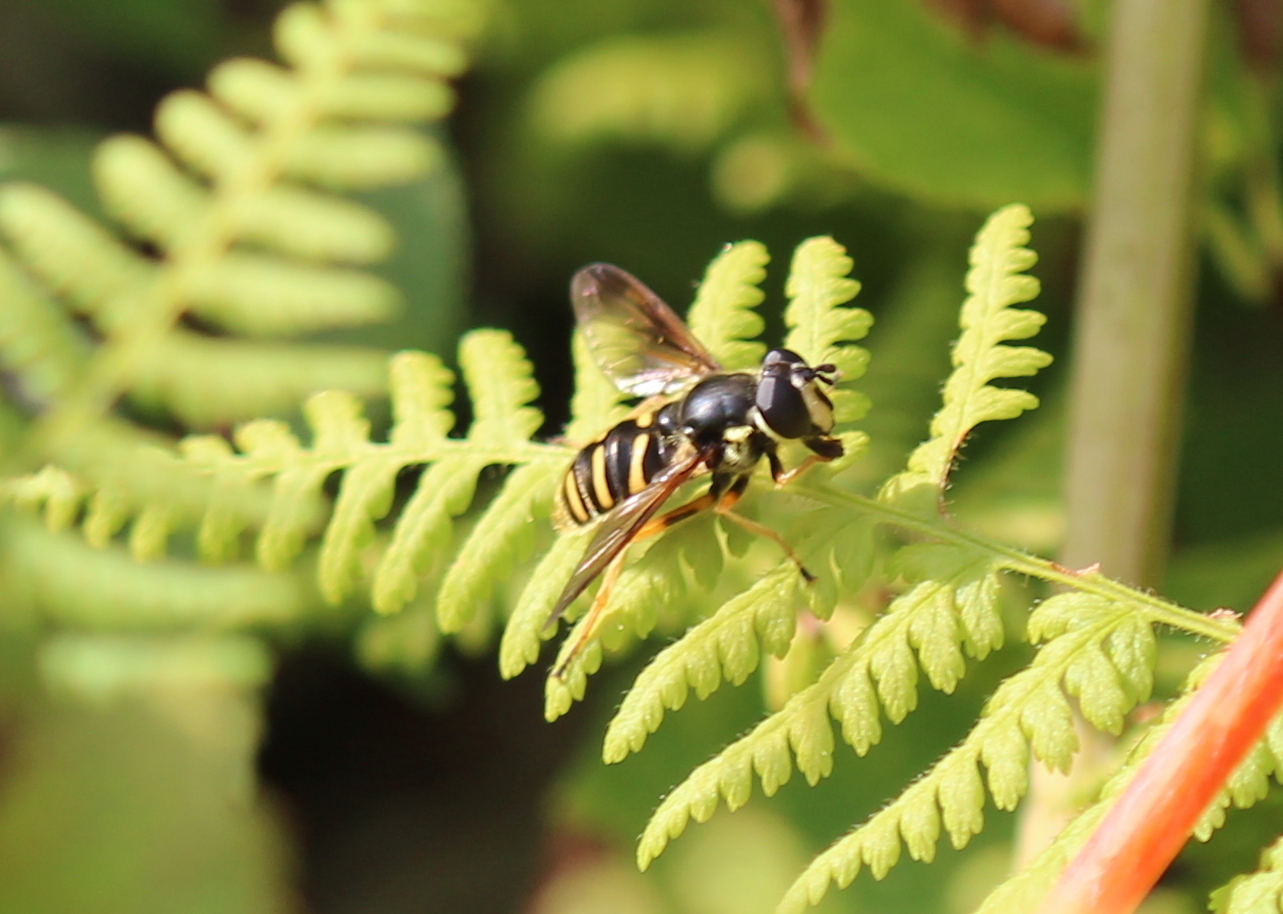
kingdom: Animalia
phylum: Arthropoda
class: Insecta
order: Diptera
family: Syrphidae
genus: Sericomyia
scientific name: Sericomyia chrysotoxoides
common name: Oblique-banded pond fly
